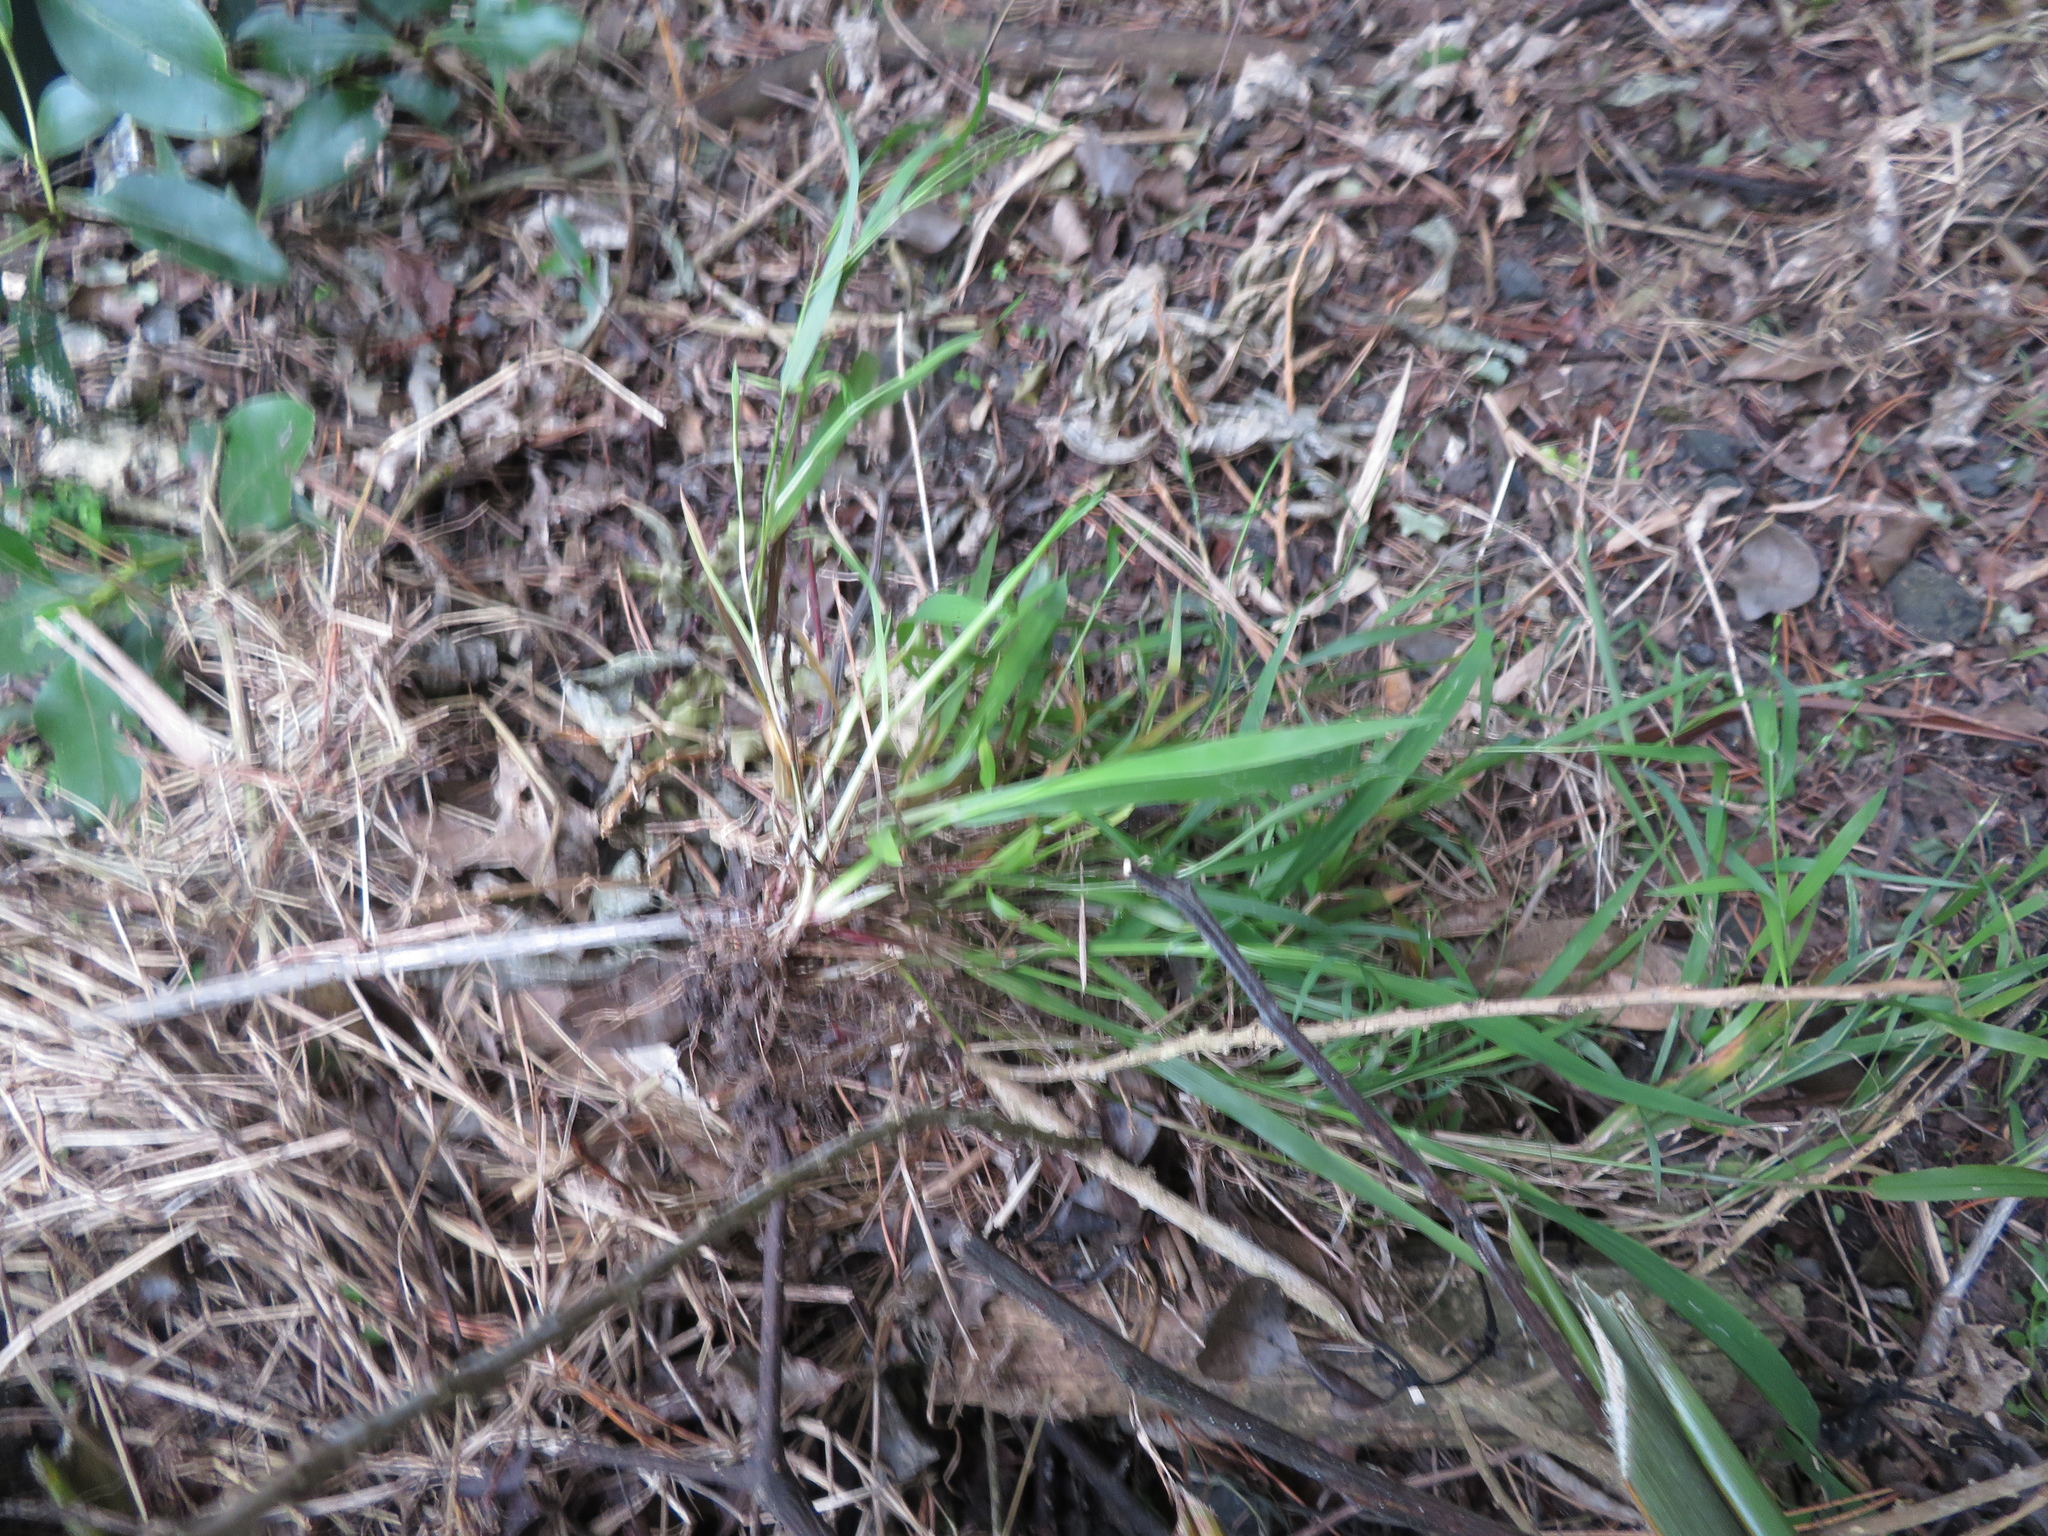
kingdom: Plantae
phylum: Tracheophyta
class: Liliopsida
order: Poales
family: Poaceae
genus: Ehrharta
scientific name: Ehrharta erecta
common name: Panic veldtgrass
